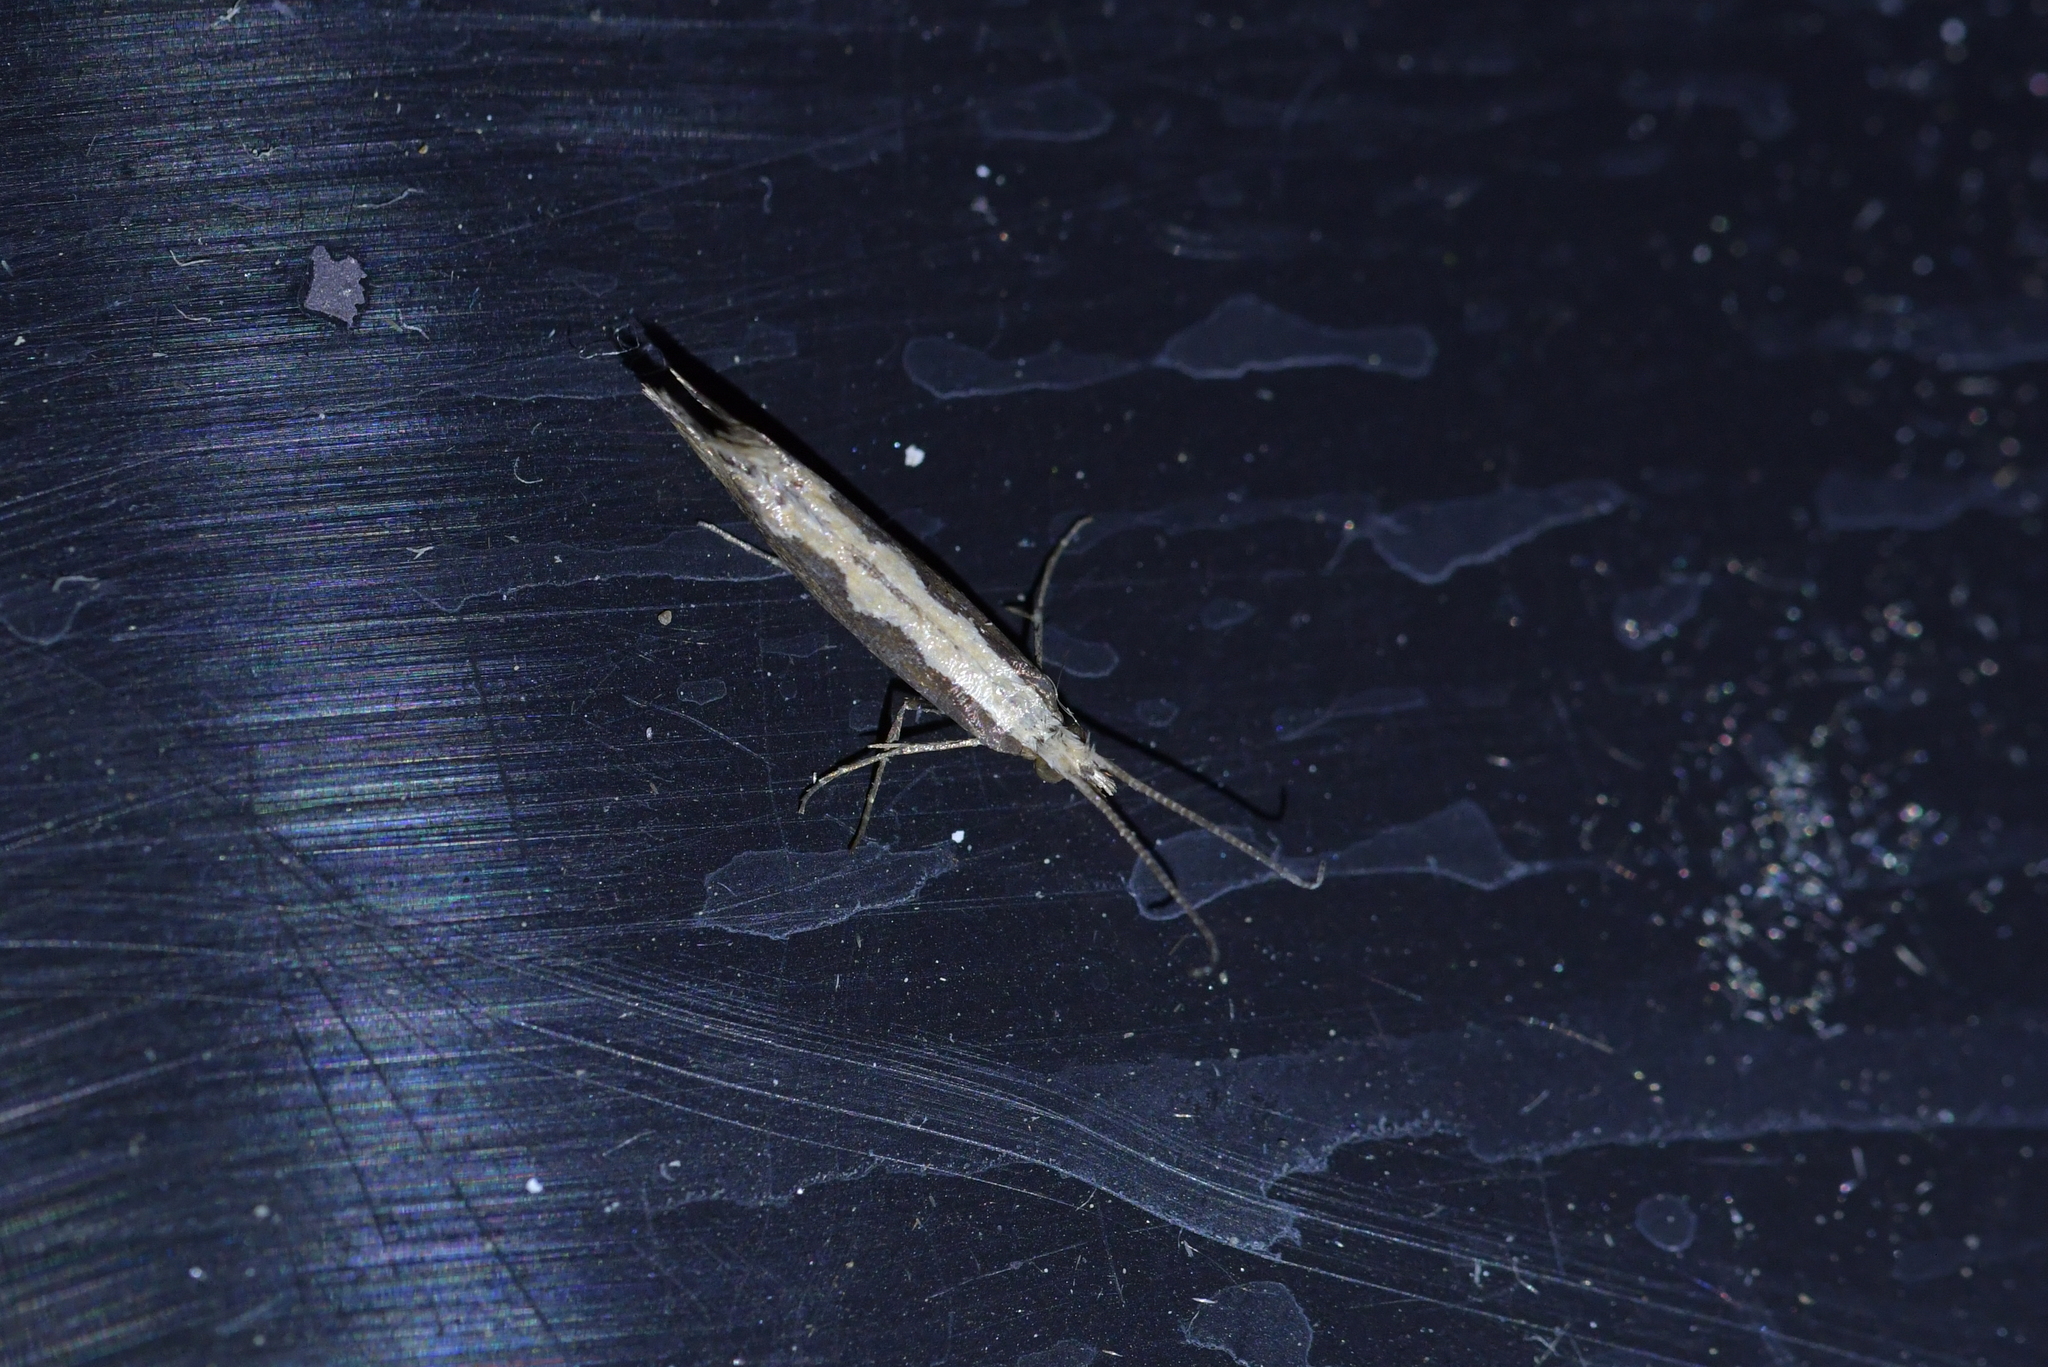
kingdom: Animalia
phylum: Arthropoda
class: Insecta
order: Lepidoptera
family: Plutellidae
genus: Plutella
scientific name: Plutella xylostella
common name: Diamond-back moth
